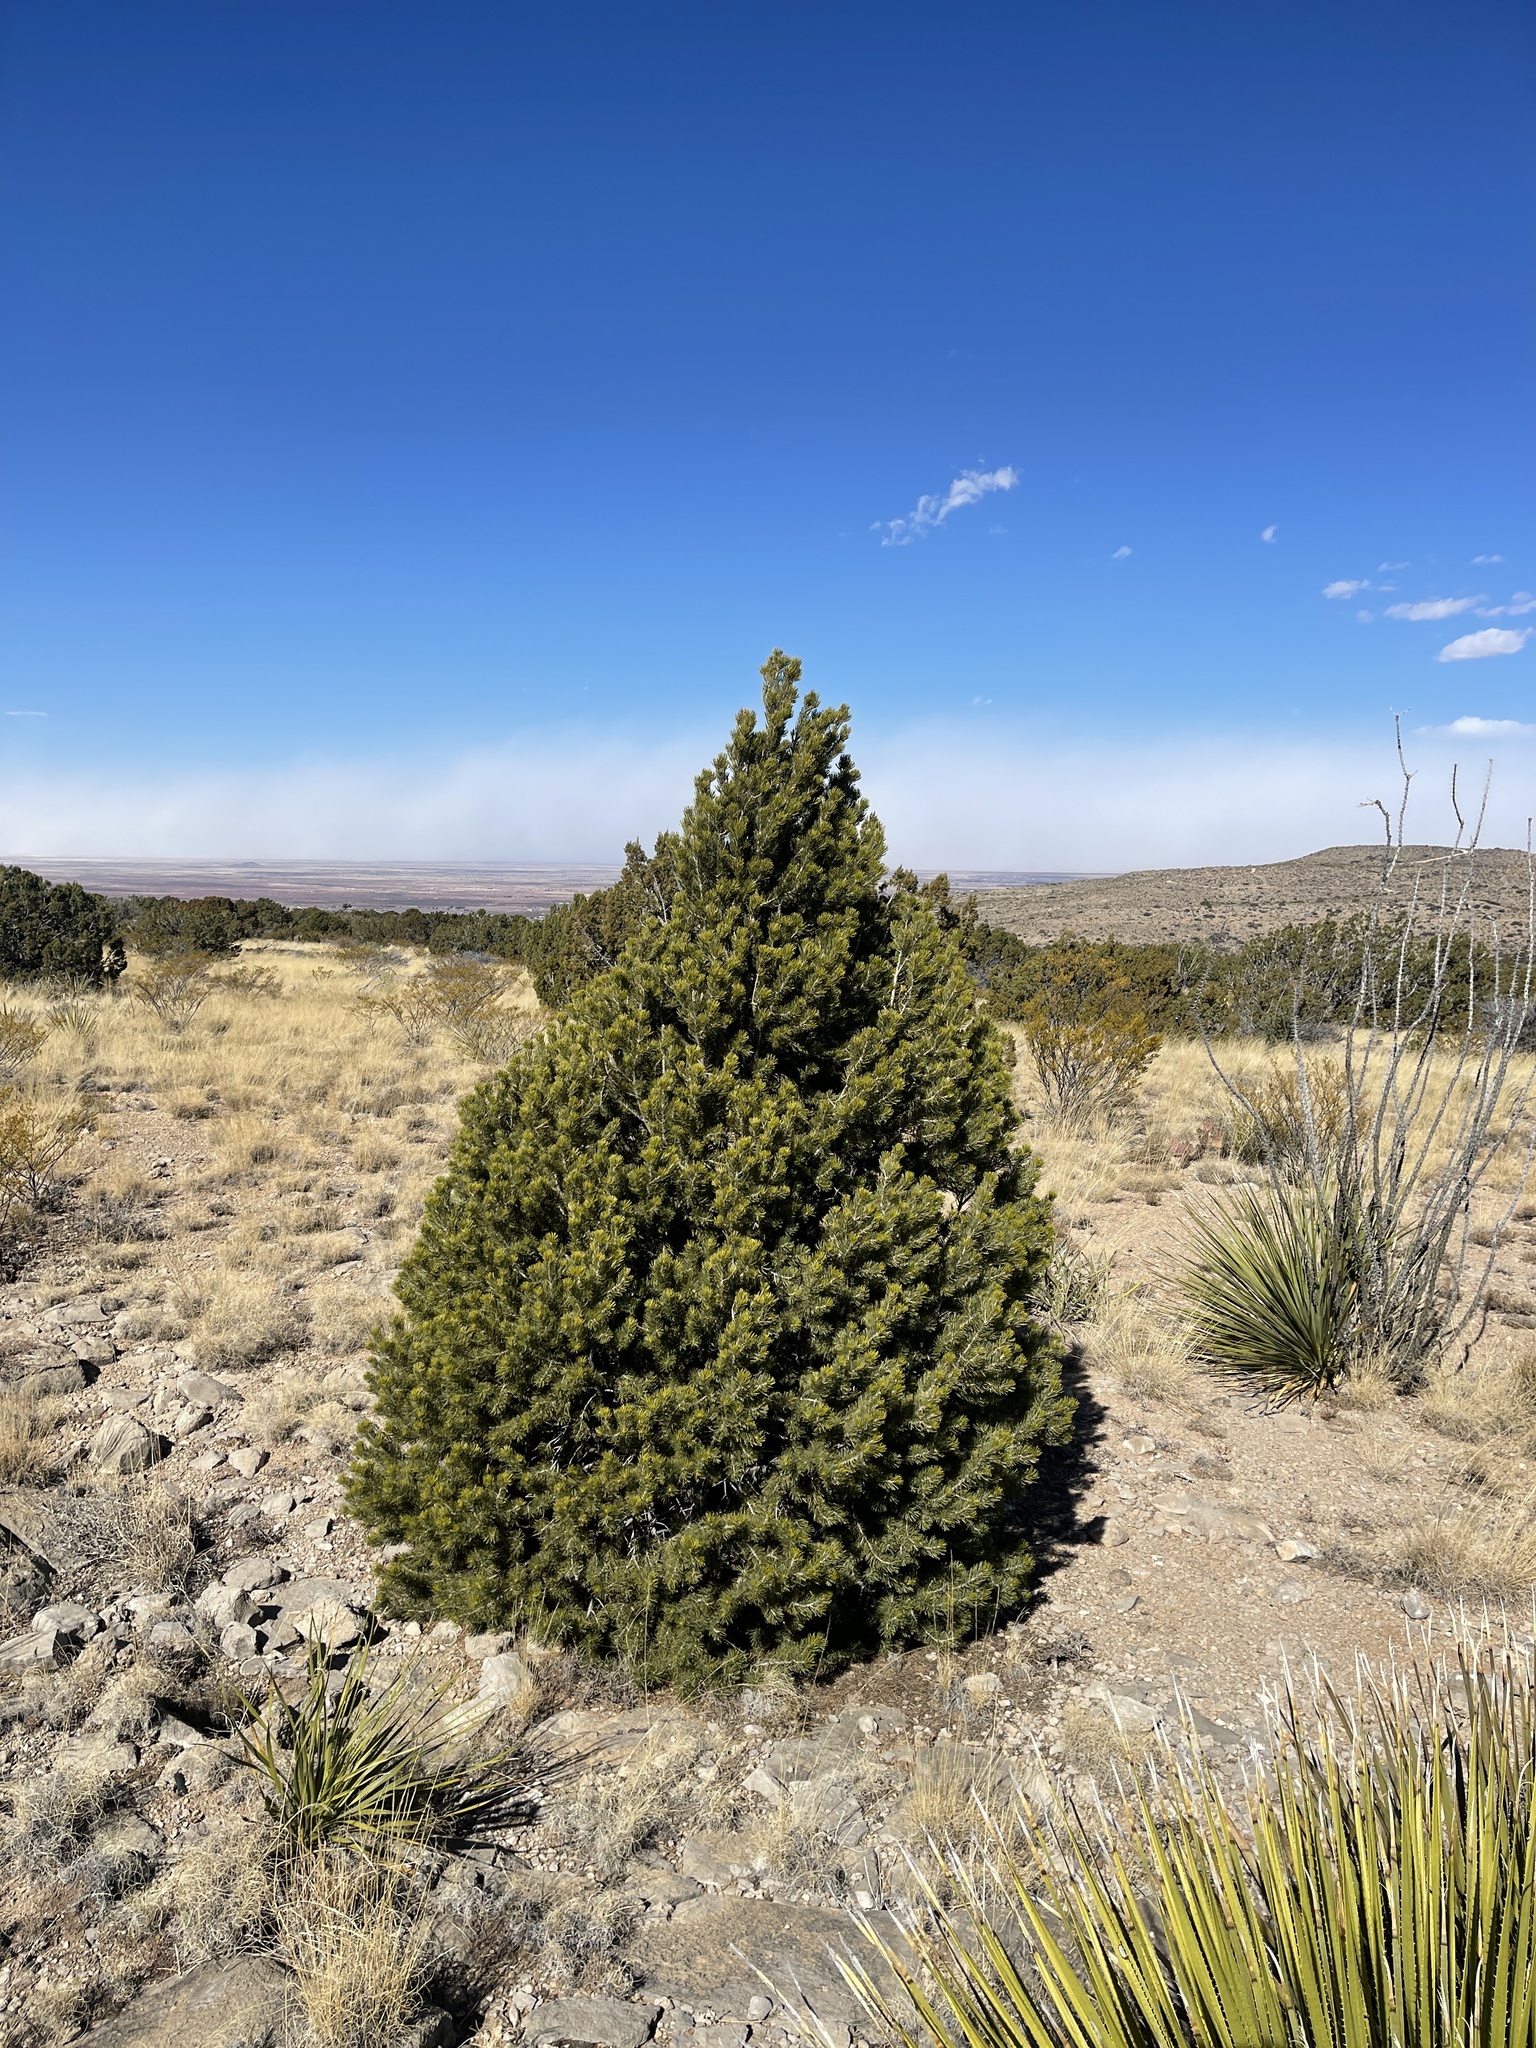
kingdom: Plantae
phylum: Tracheophyta
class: Pinopsida
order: Pinales
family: Pinaceae
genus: Pinus
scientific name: Pinus edulis
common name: Colorado pinyon
